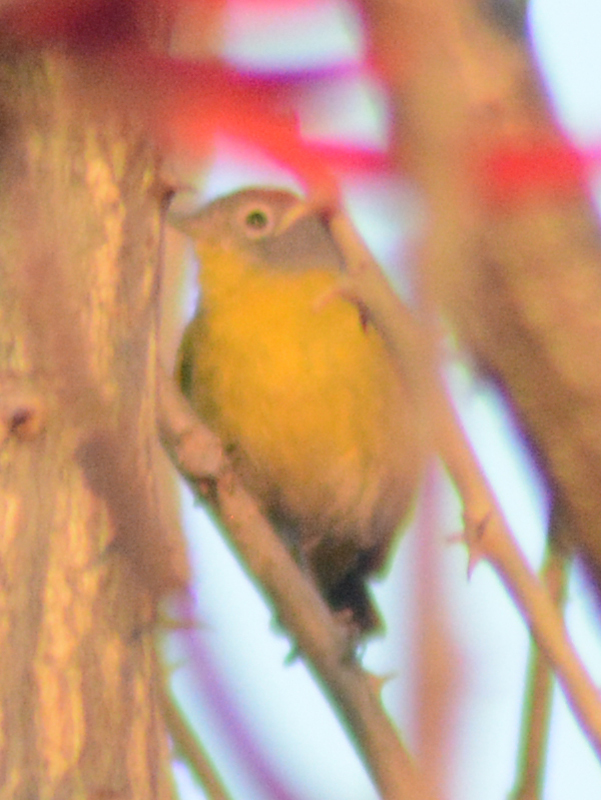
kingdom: Animalia
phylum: Chordata
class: Aves
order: Passeriformes
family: Parulidae
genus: Leiothlypis
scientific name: Leiothlypis ruficapilla
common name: Nashville warbler
